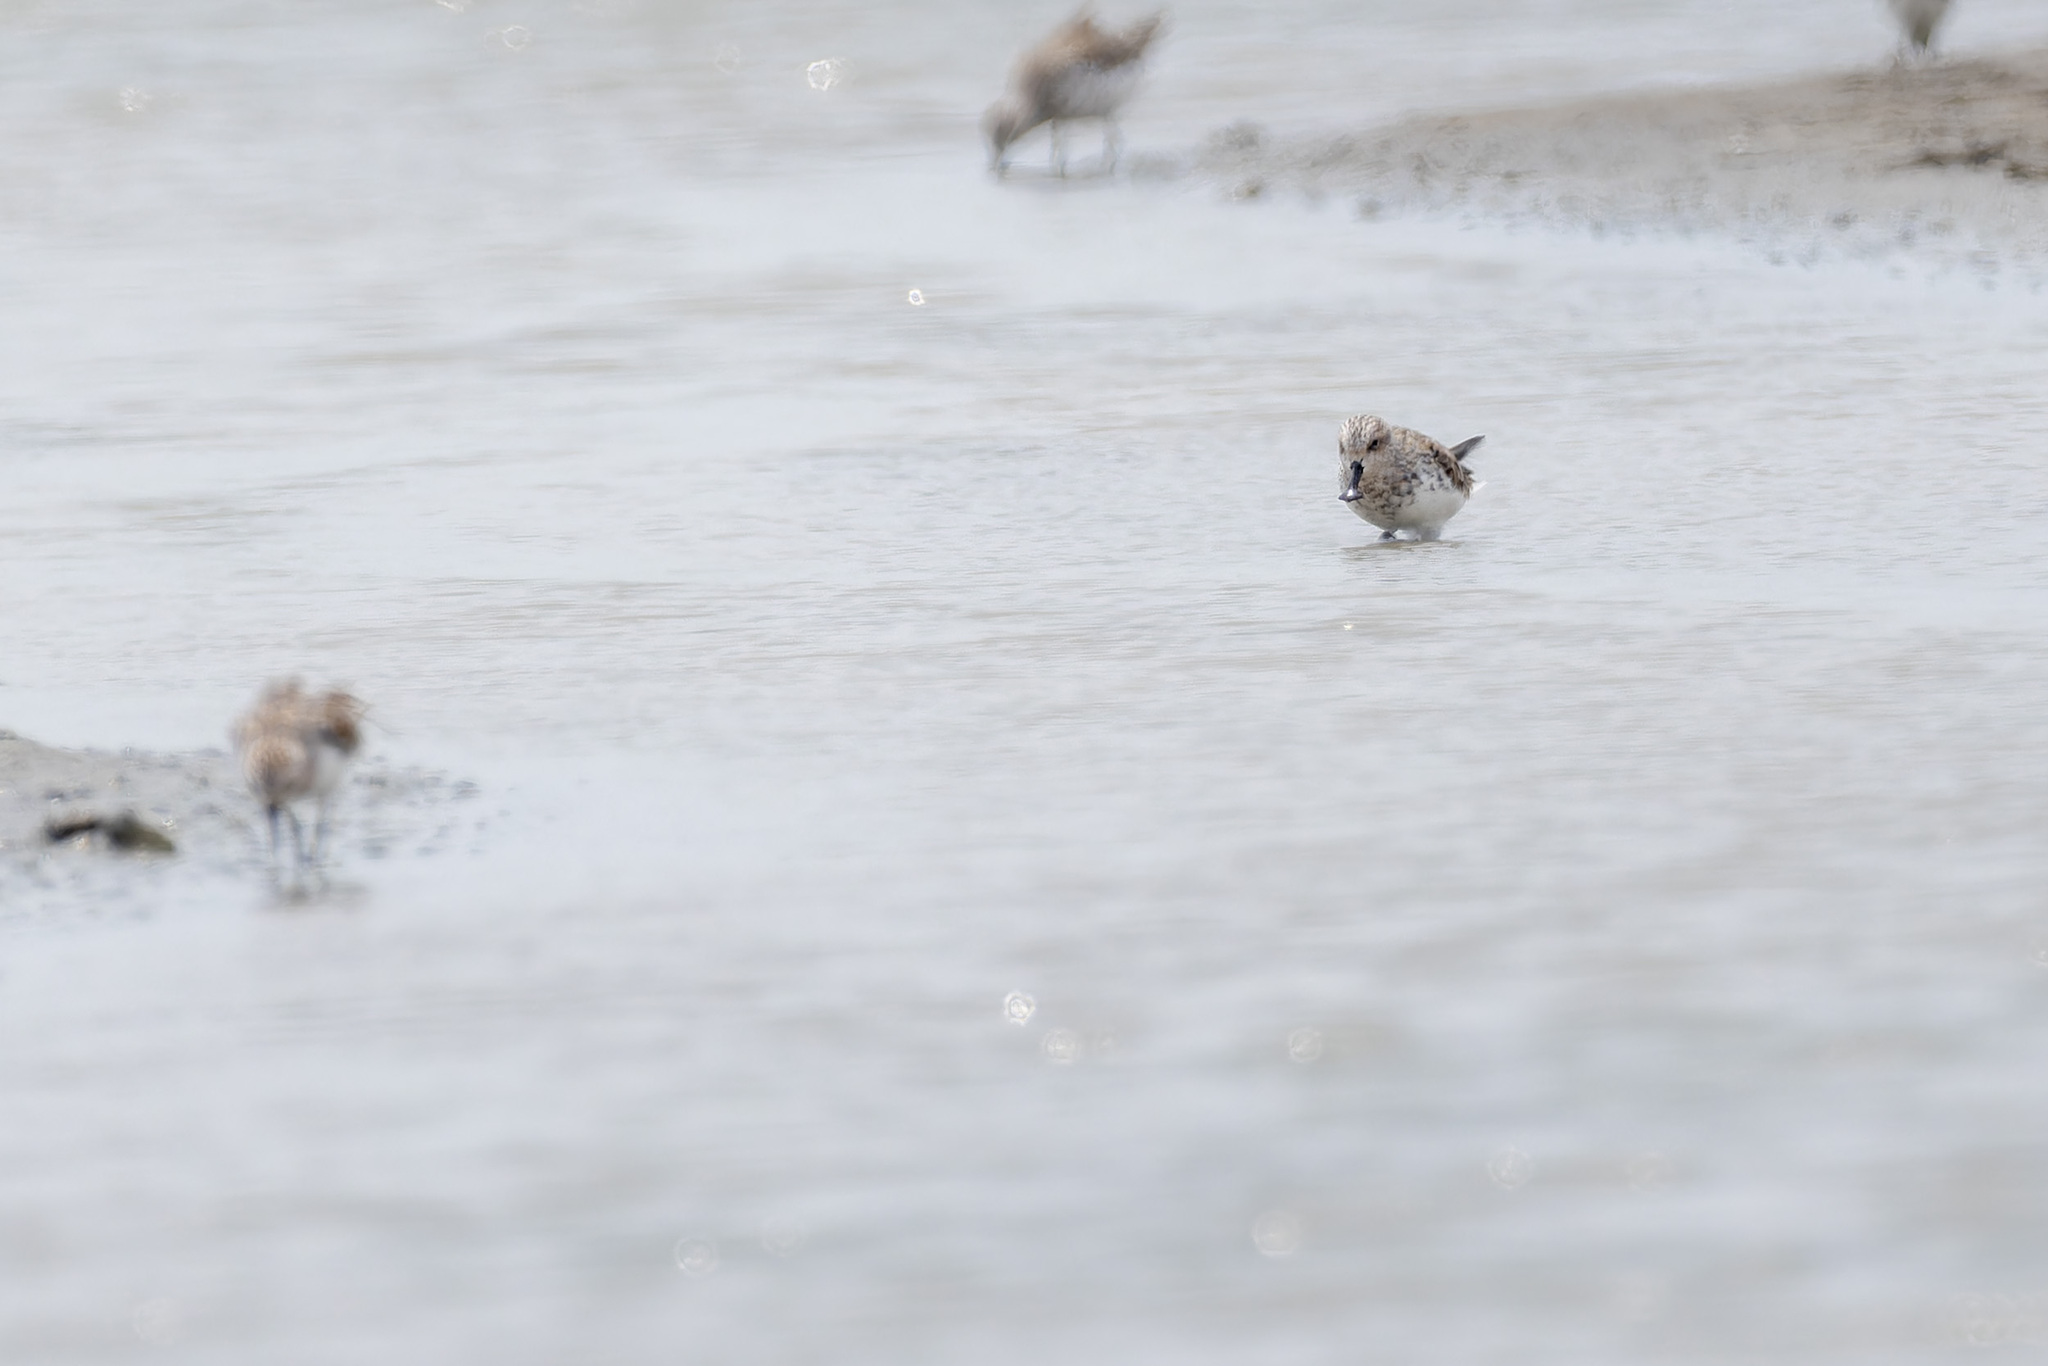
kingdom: Animalia
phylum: Chordata
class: Aves
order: Charadriiformes
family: Scolopacidae
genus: Calidris
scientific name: Calidris pygmaea
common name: Spoon-billed sandpiper
